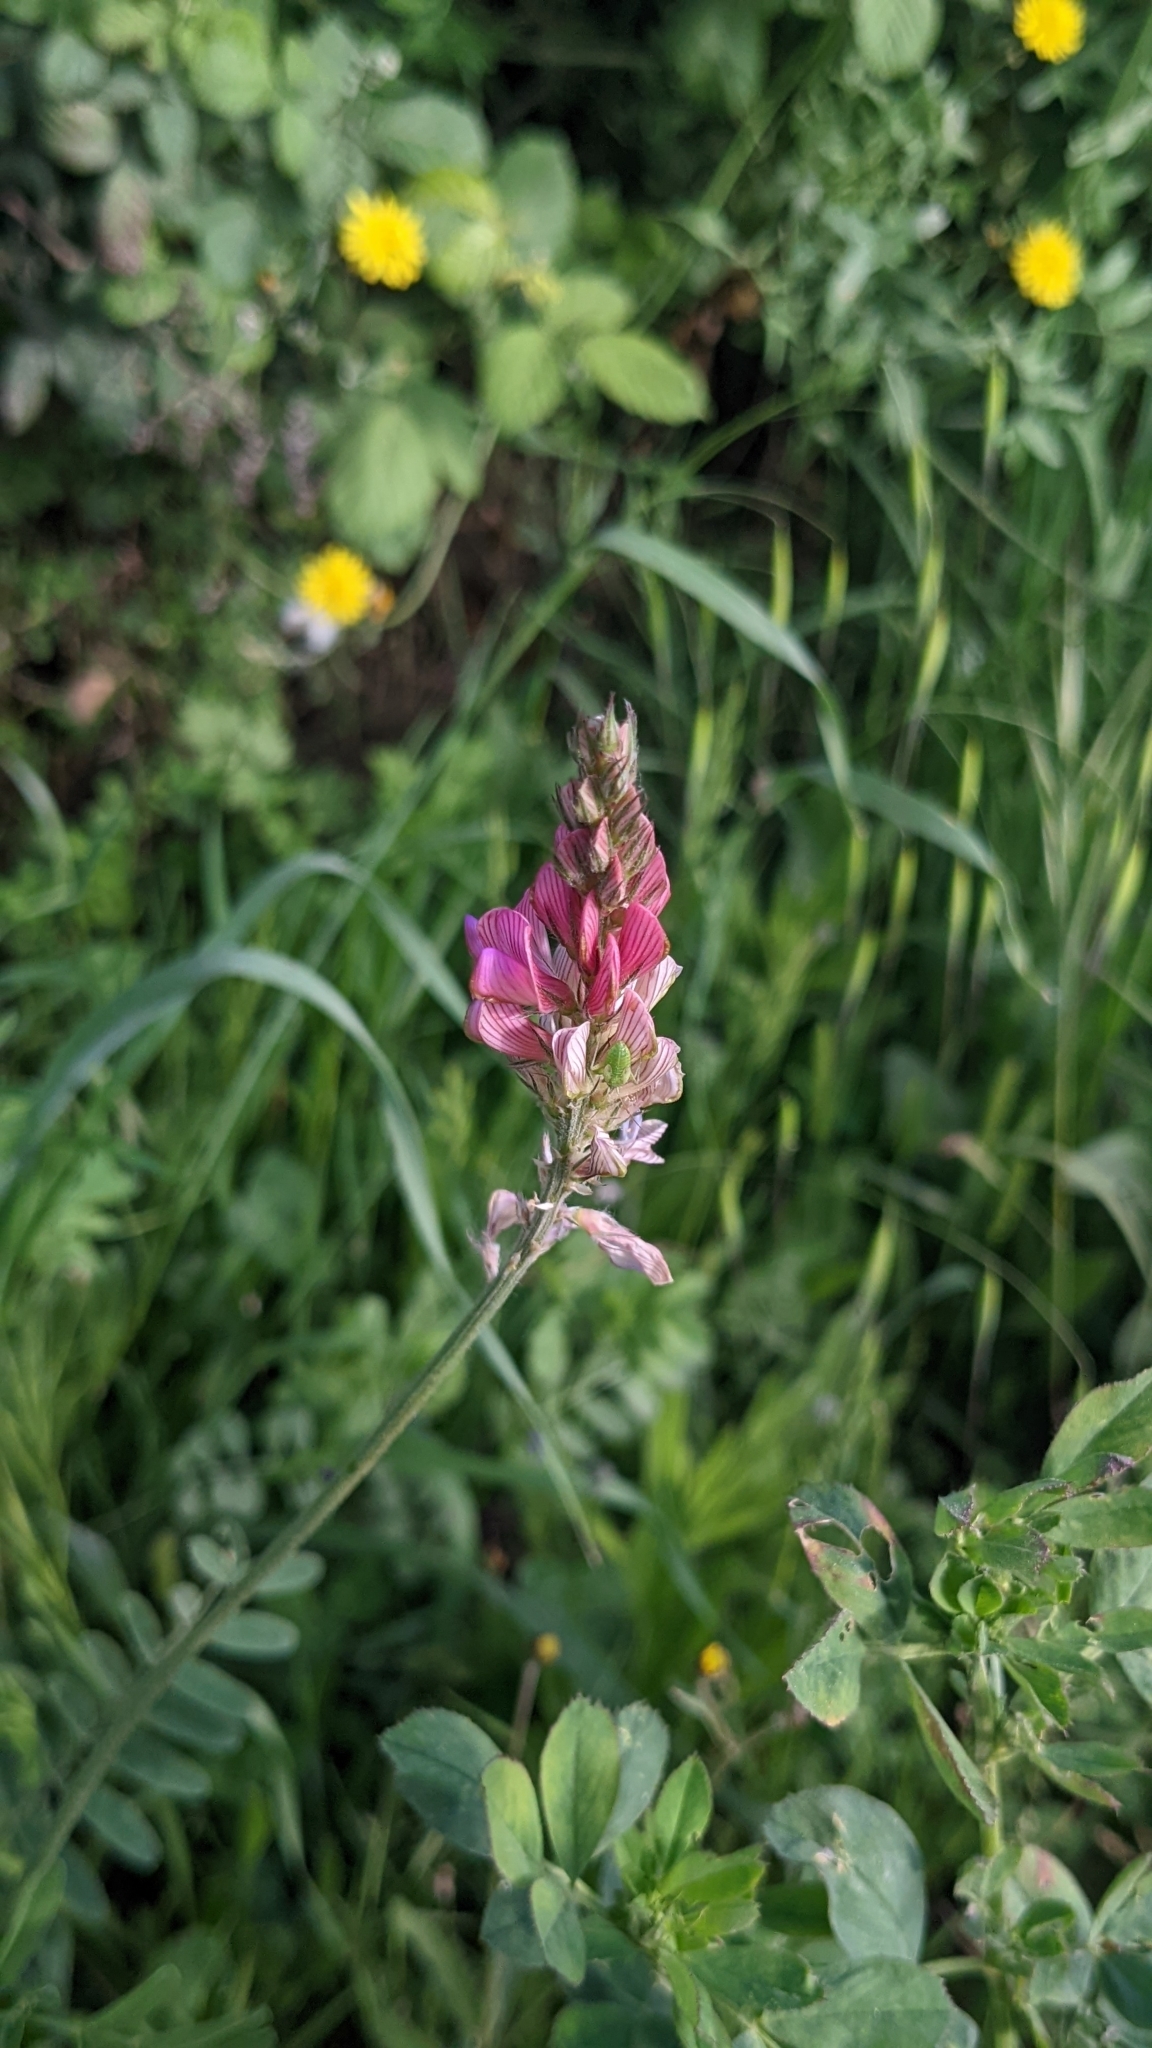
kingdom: Plantae
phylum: Tracheophyta
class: Magnoliopsida
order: Fabales
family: Fabaceae
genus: Onobrychis
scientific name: Onobrychis viciifolia
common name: Sainfoin
